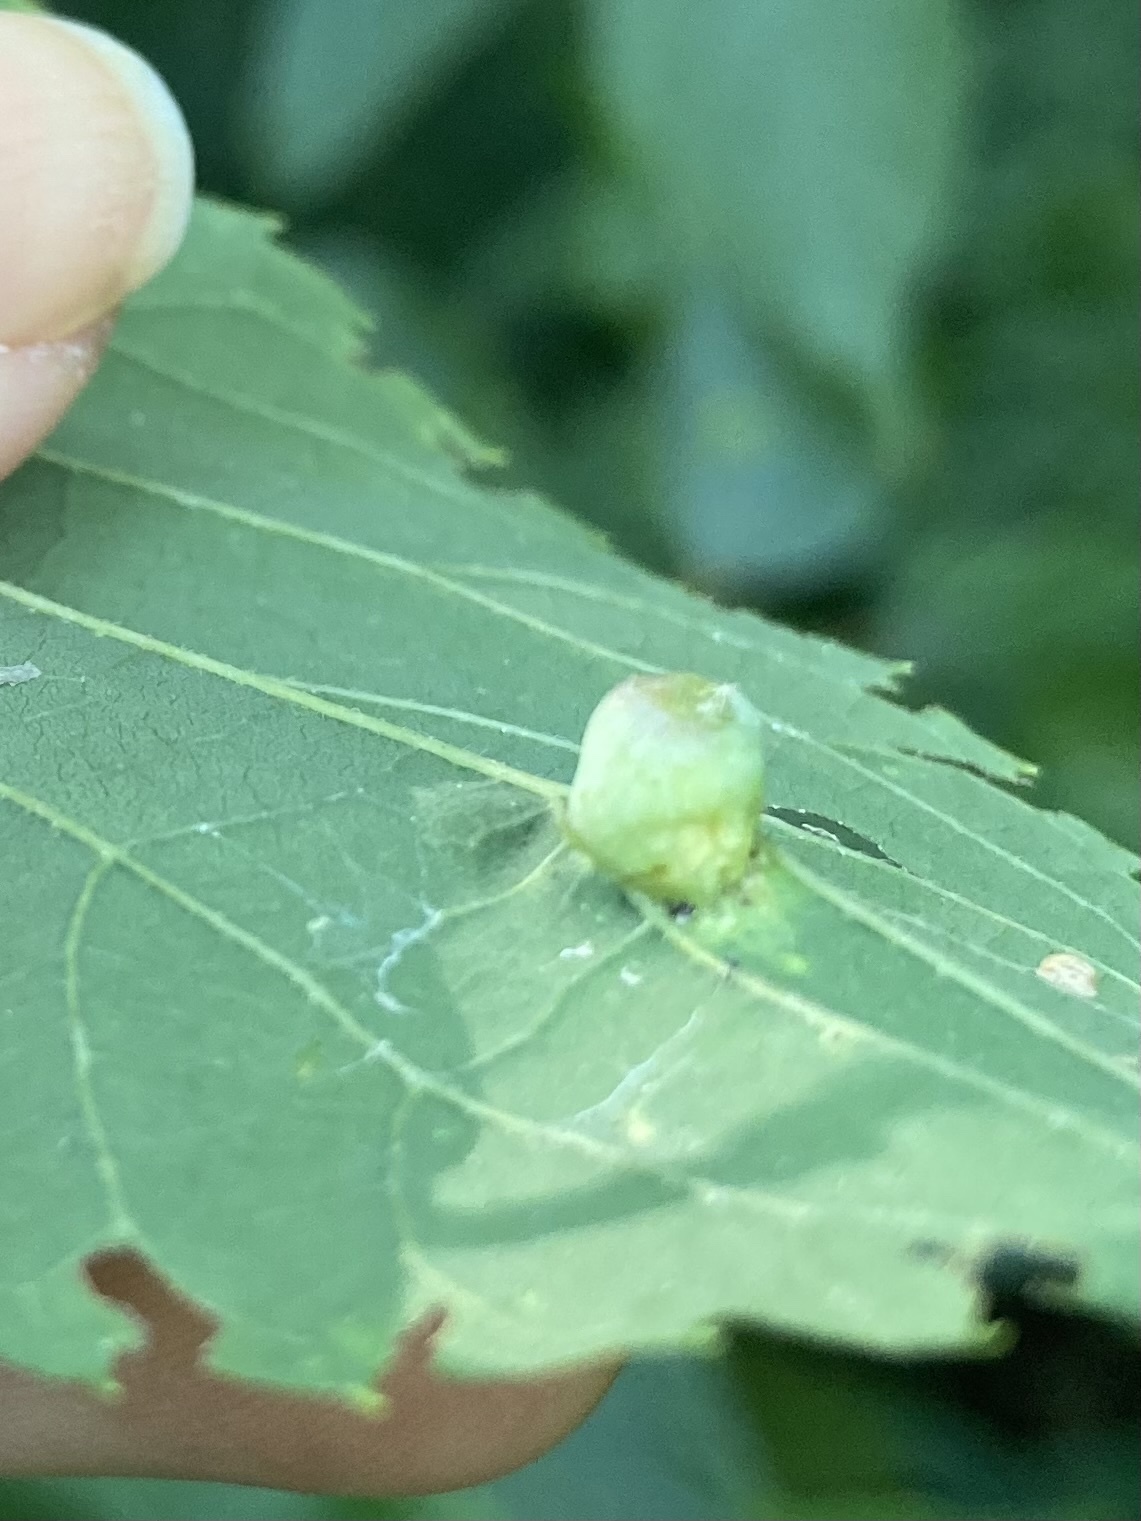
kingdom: Animalia
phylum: Arthropoda
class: Insecta
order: Hemiptera
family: Aphalaridae
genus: Pachypsylla
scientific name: Pachypsylla celtidismamma
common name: Hackberry nipplegall psyllid
